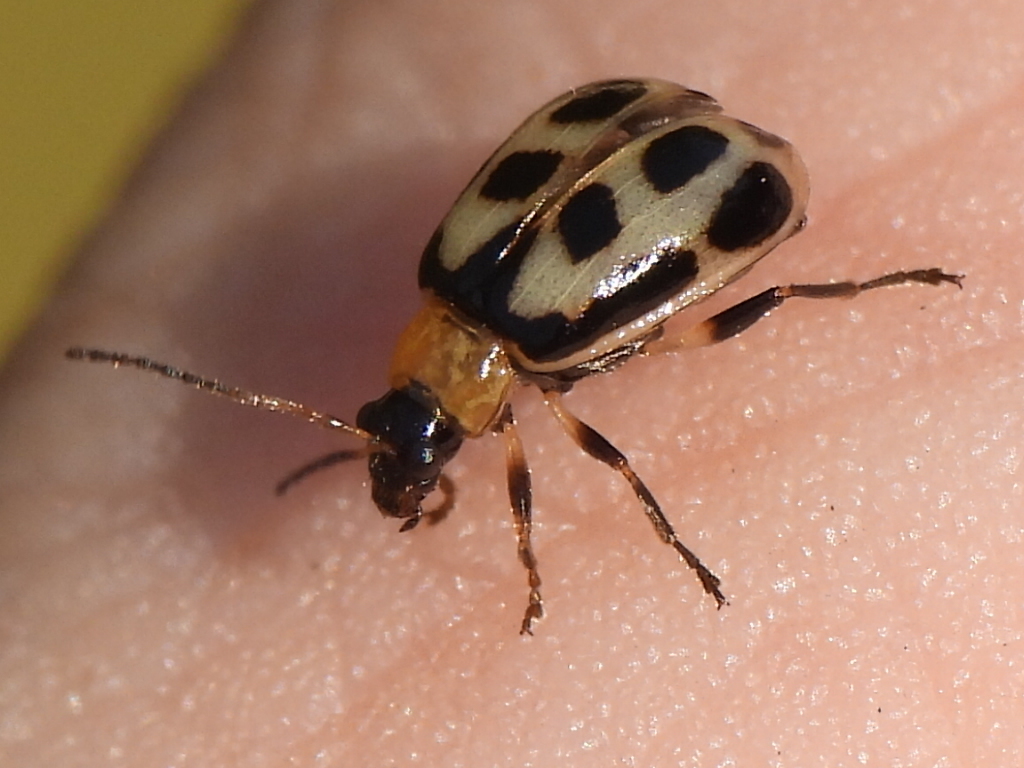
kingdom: Animalia
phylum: Arthropoda
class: Insecta
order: Coleoptera
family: Chrysomelidae
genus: Cerotoma
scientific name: Cerotoma trifurcata
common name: Bean leaf beetle
